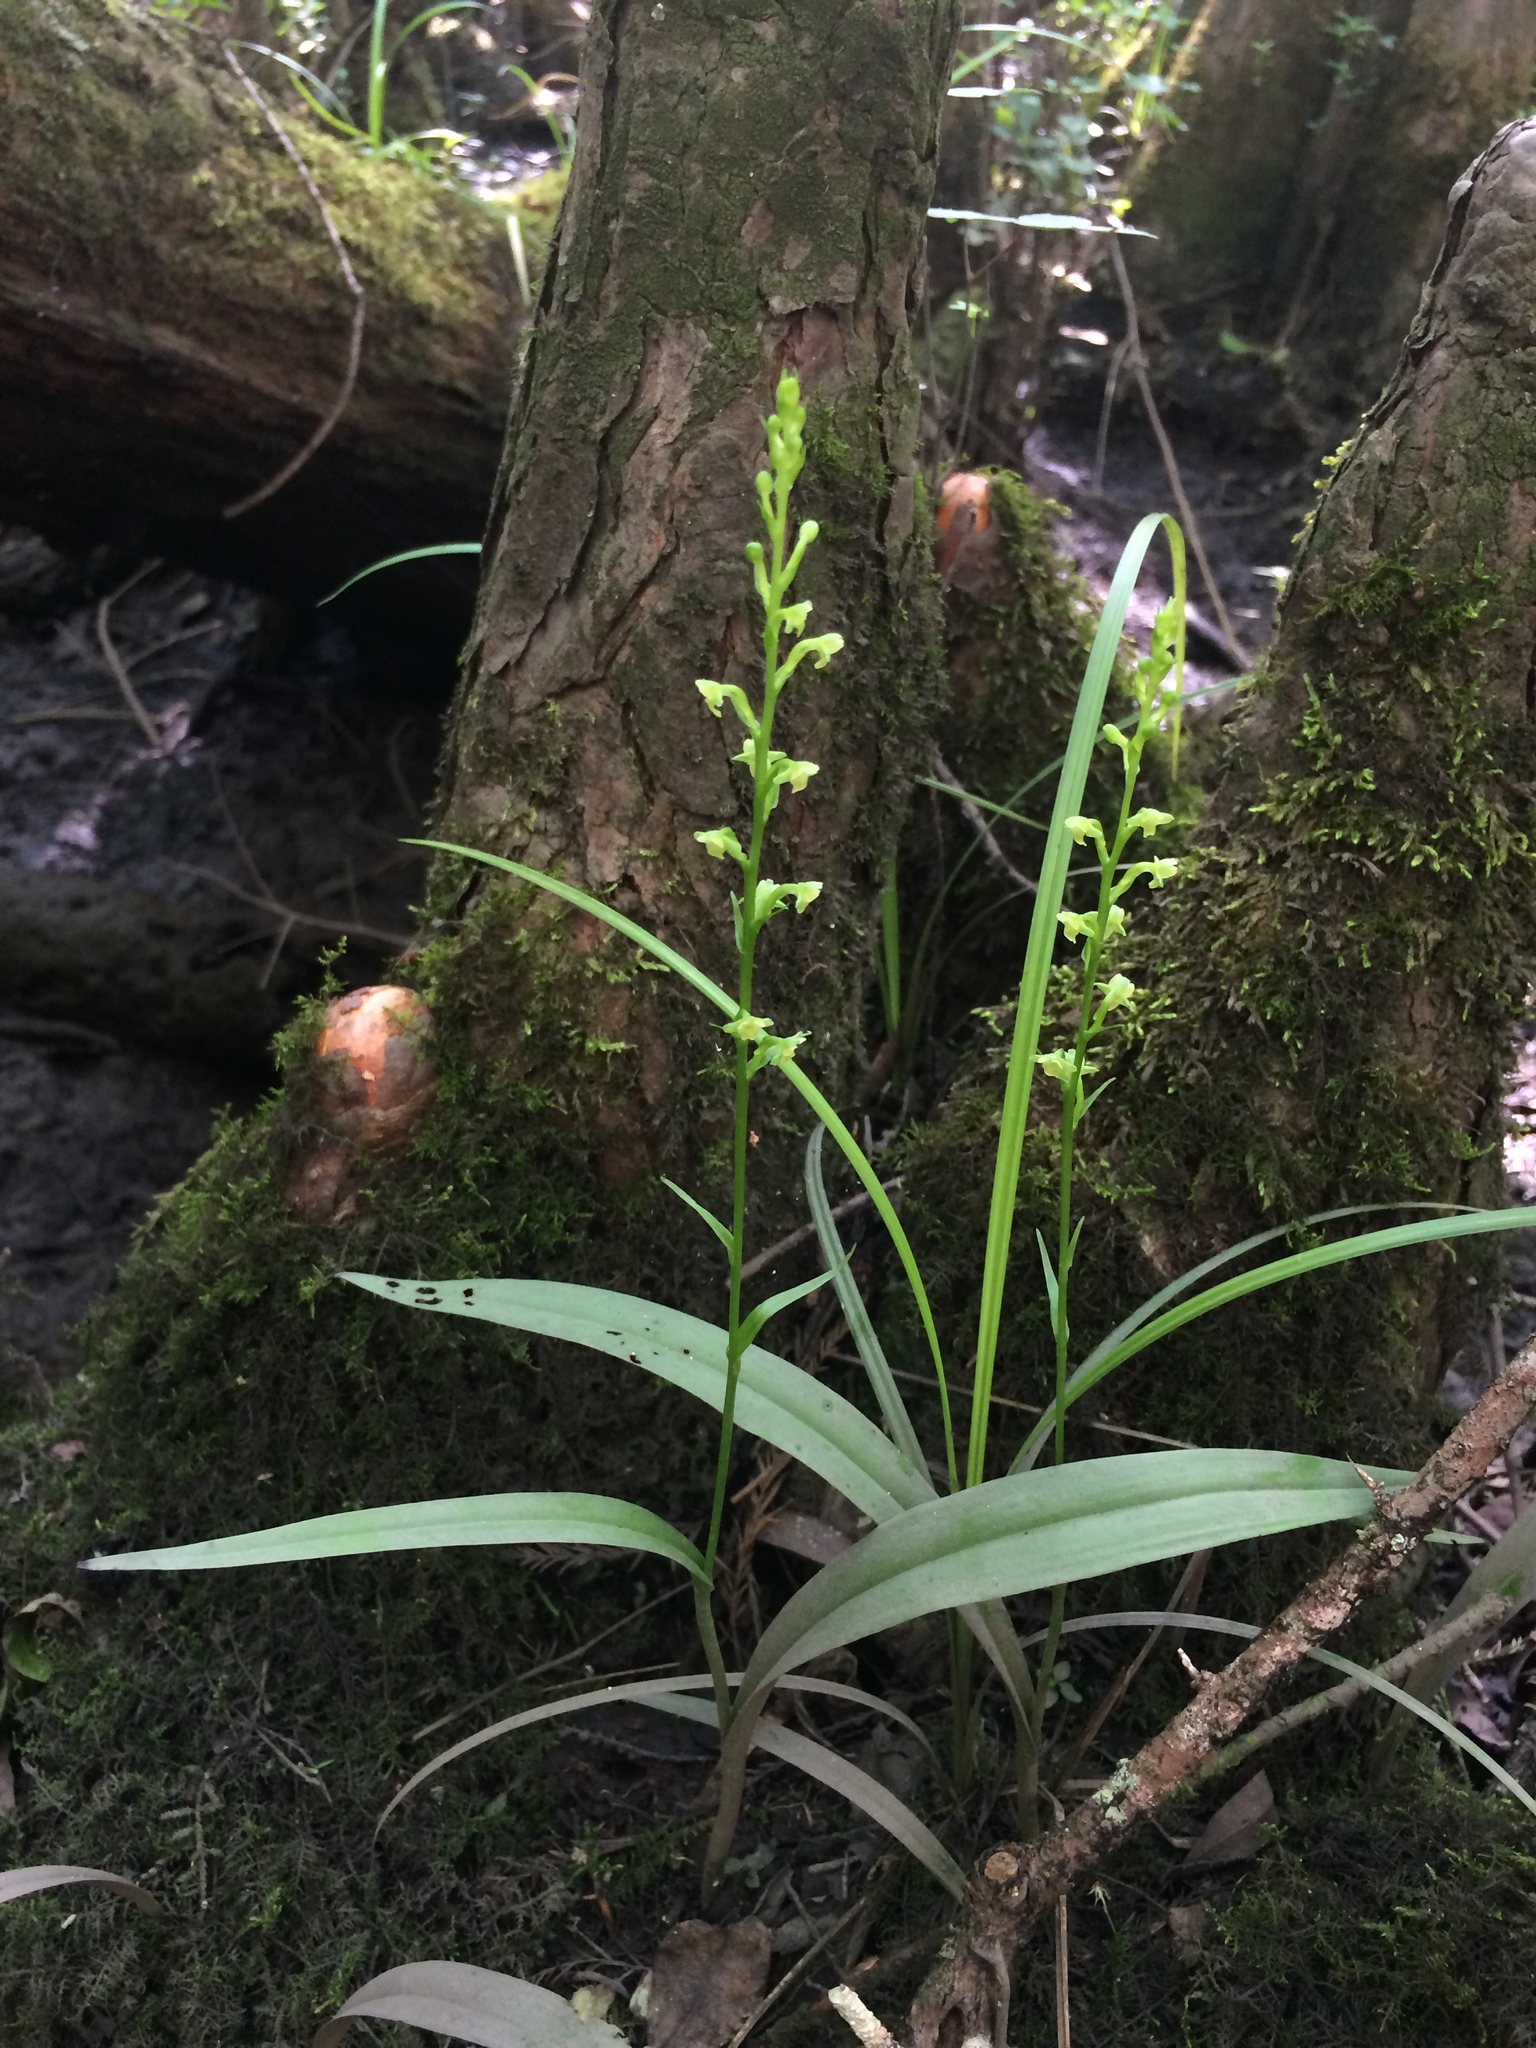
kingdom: Plantae
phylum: Tracheophyta
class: Liliopsida
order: Asparagales
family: Orchidaceae
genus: Platanthera
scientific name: Platanthera flava
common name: Gypsy-spikes
